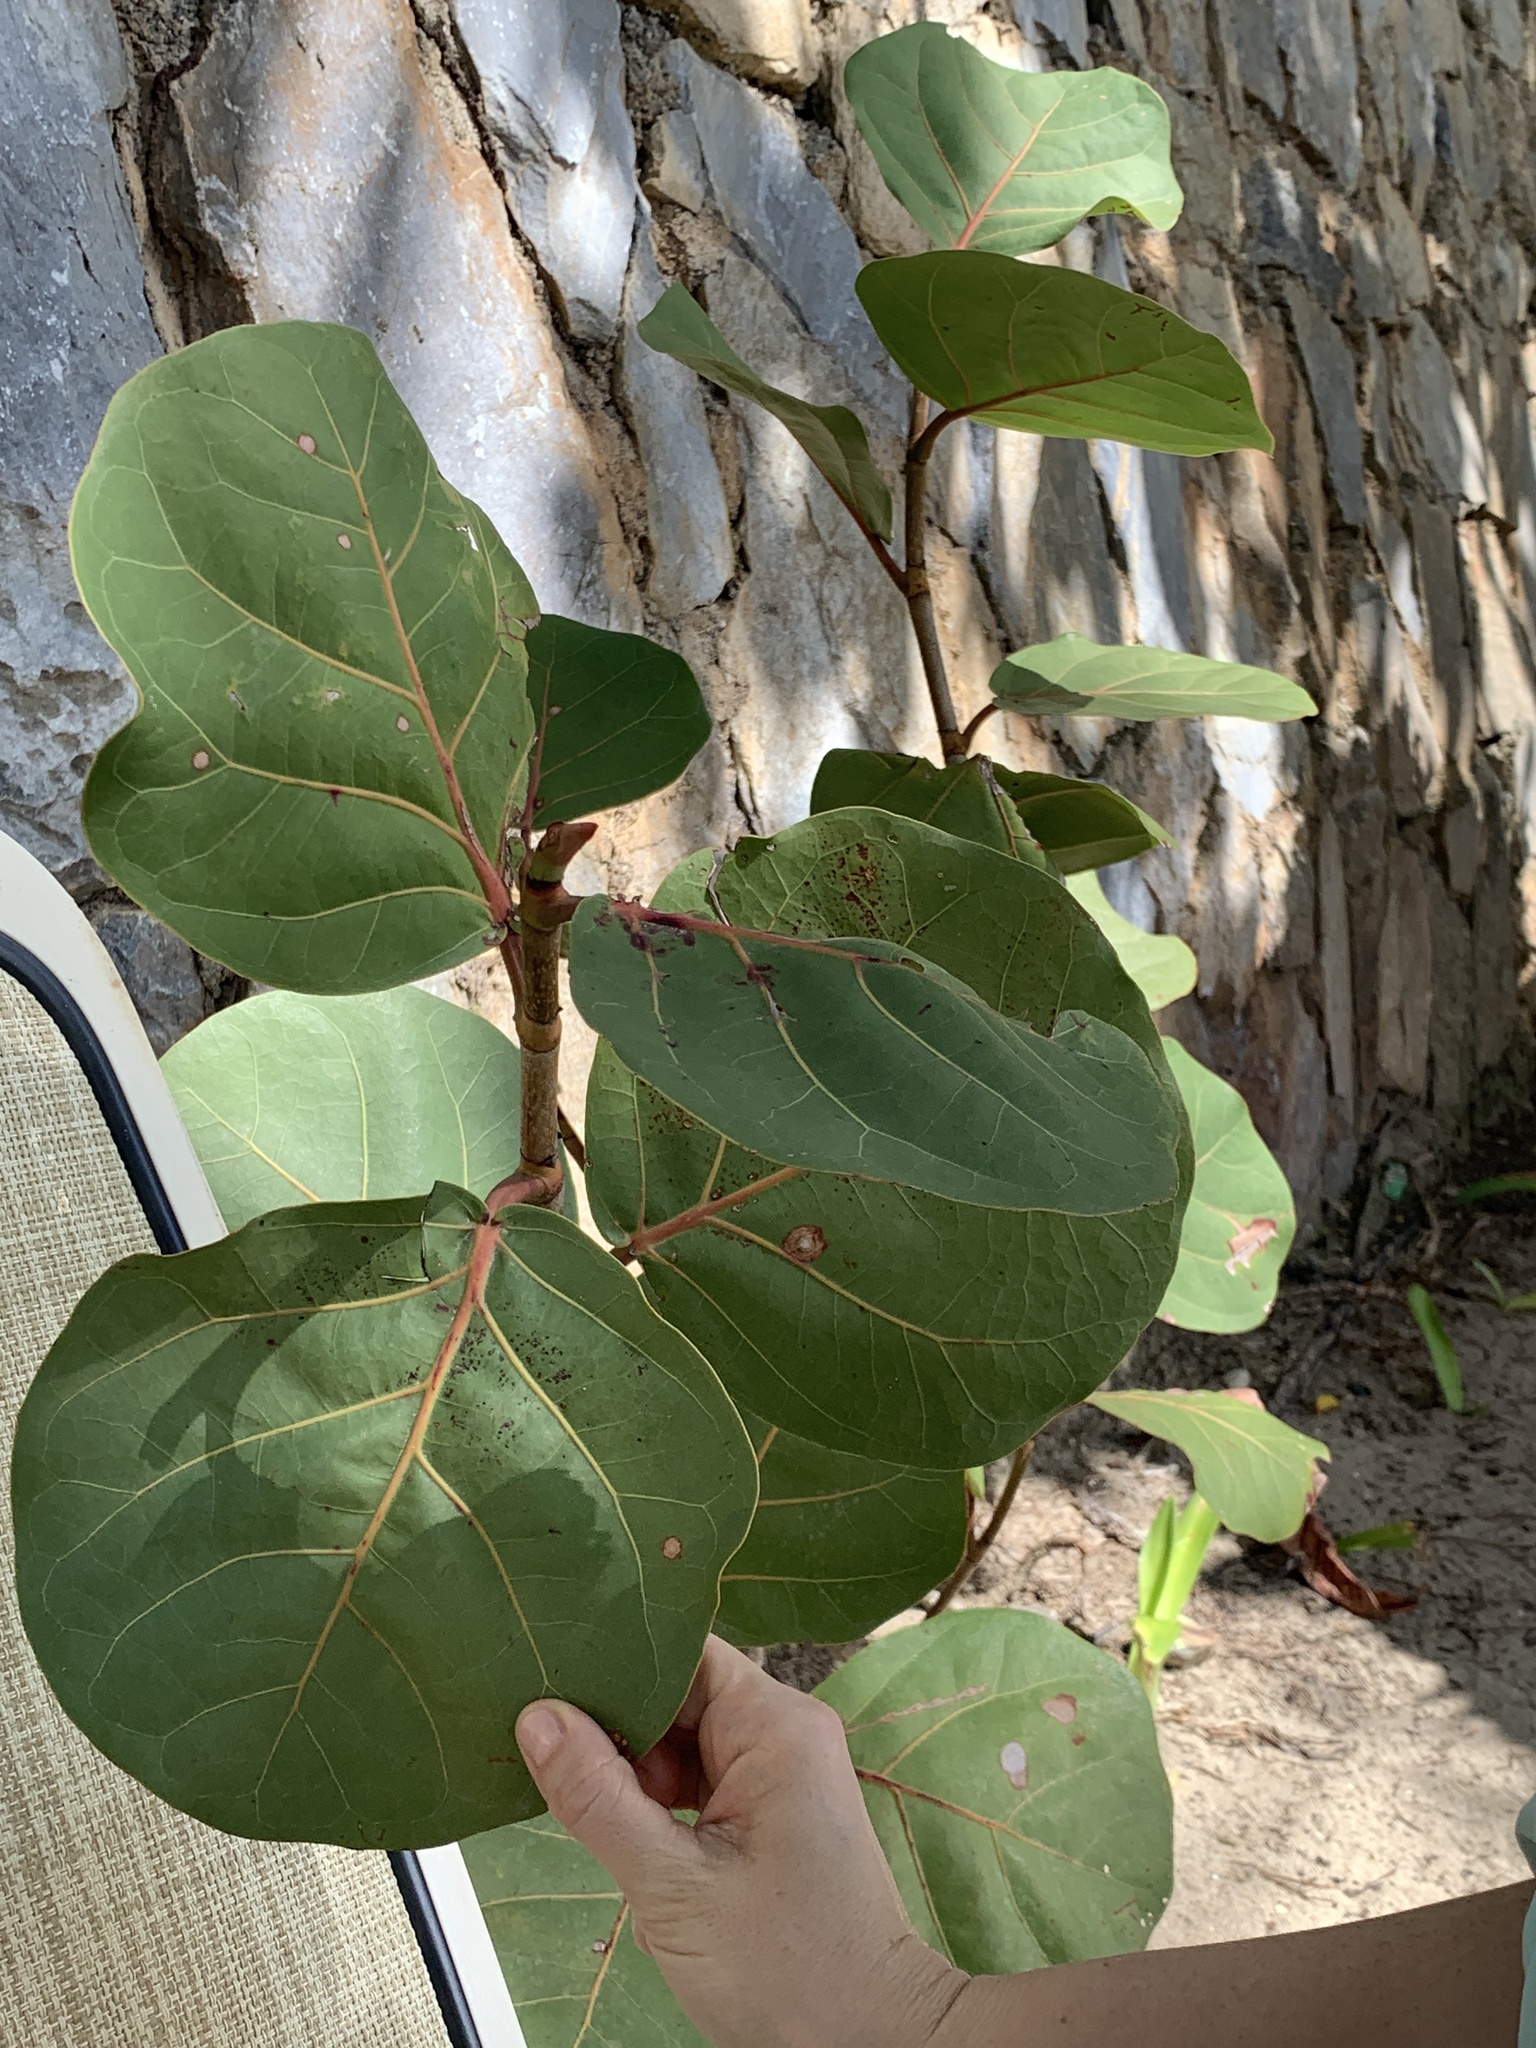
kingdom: Plantae
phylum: Tracheophyta
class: Magnoliopsida
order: Caryophyllales
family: Polygonaceae
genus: Coccoloba
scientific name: Coccoloba uvifera
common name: Seagrape
